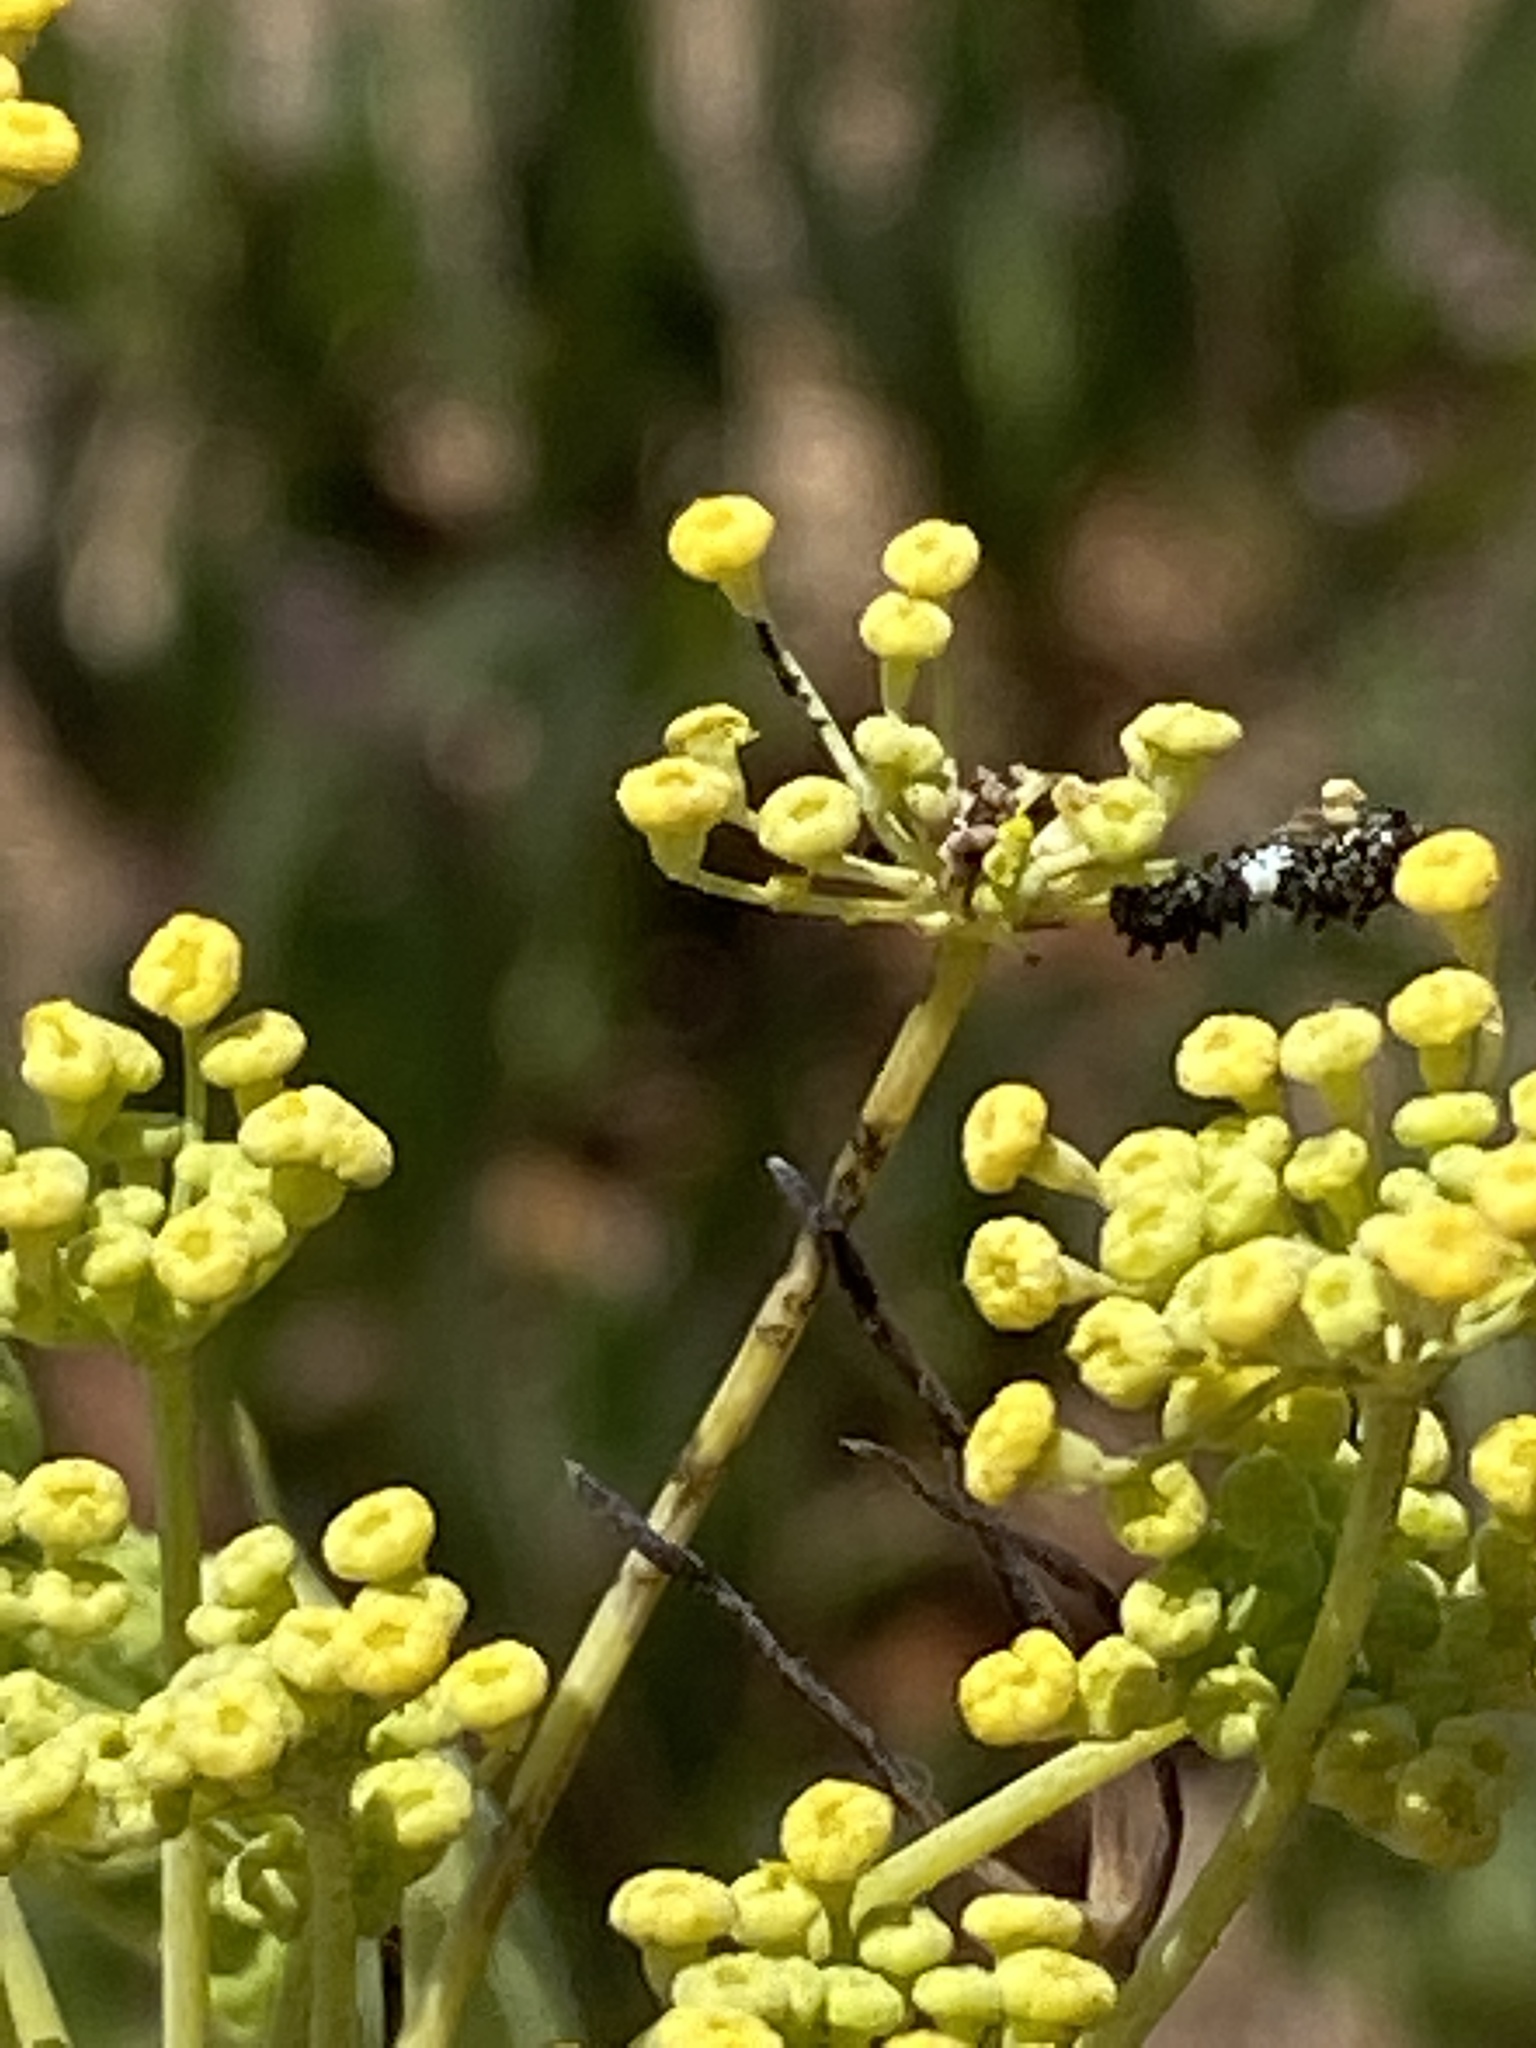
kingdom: Animalia
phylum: Arthropoda
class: Insecta
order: Lepidoptera
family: Papilionidae
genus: Papilio
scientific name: Papilio zelicaon
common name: Anise swallowtail
